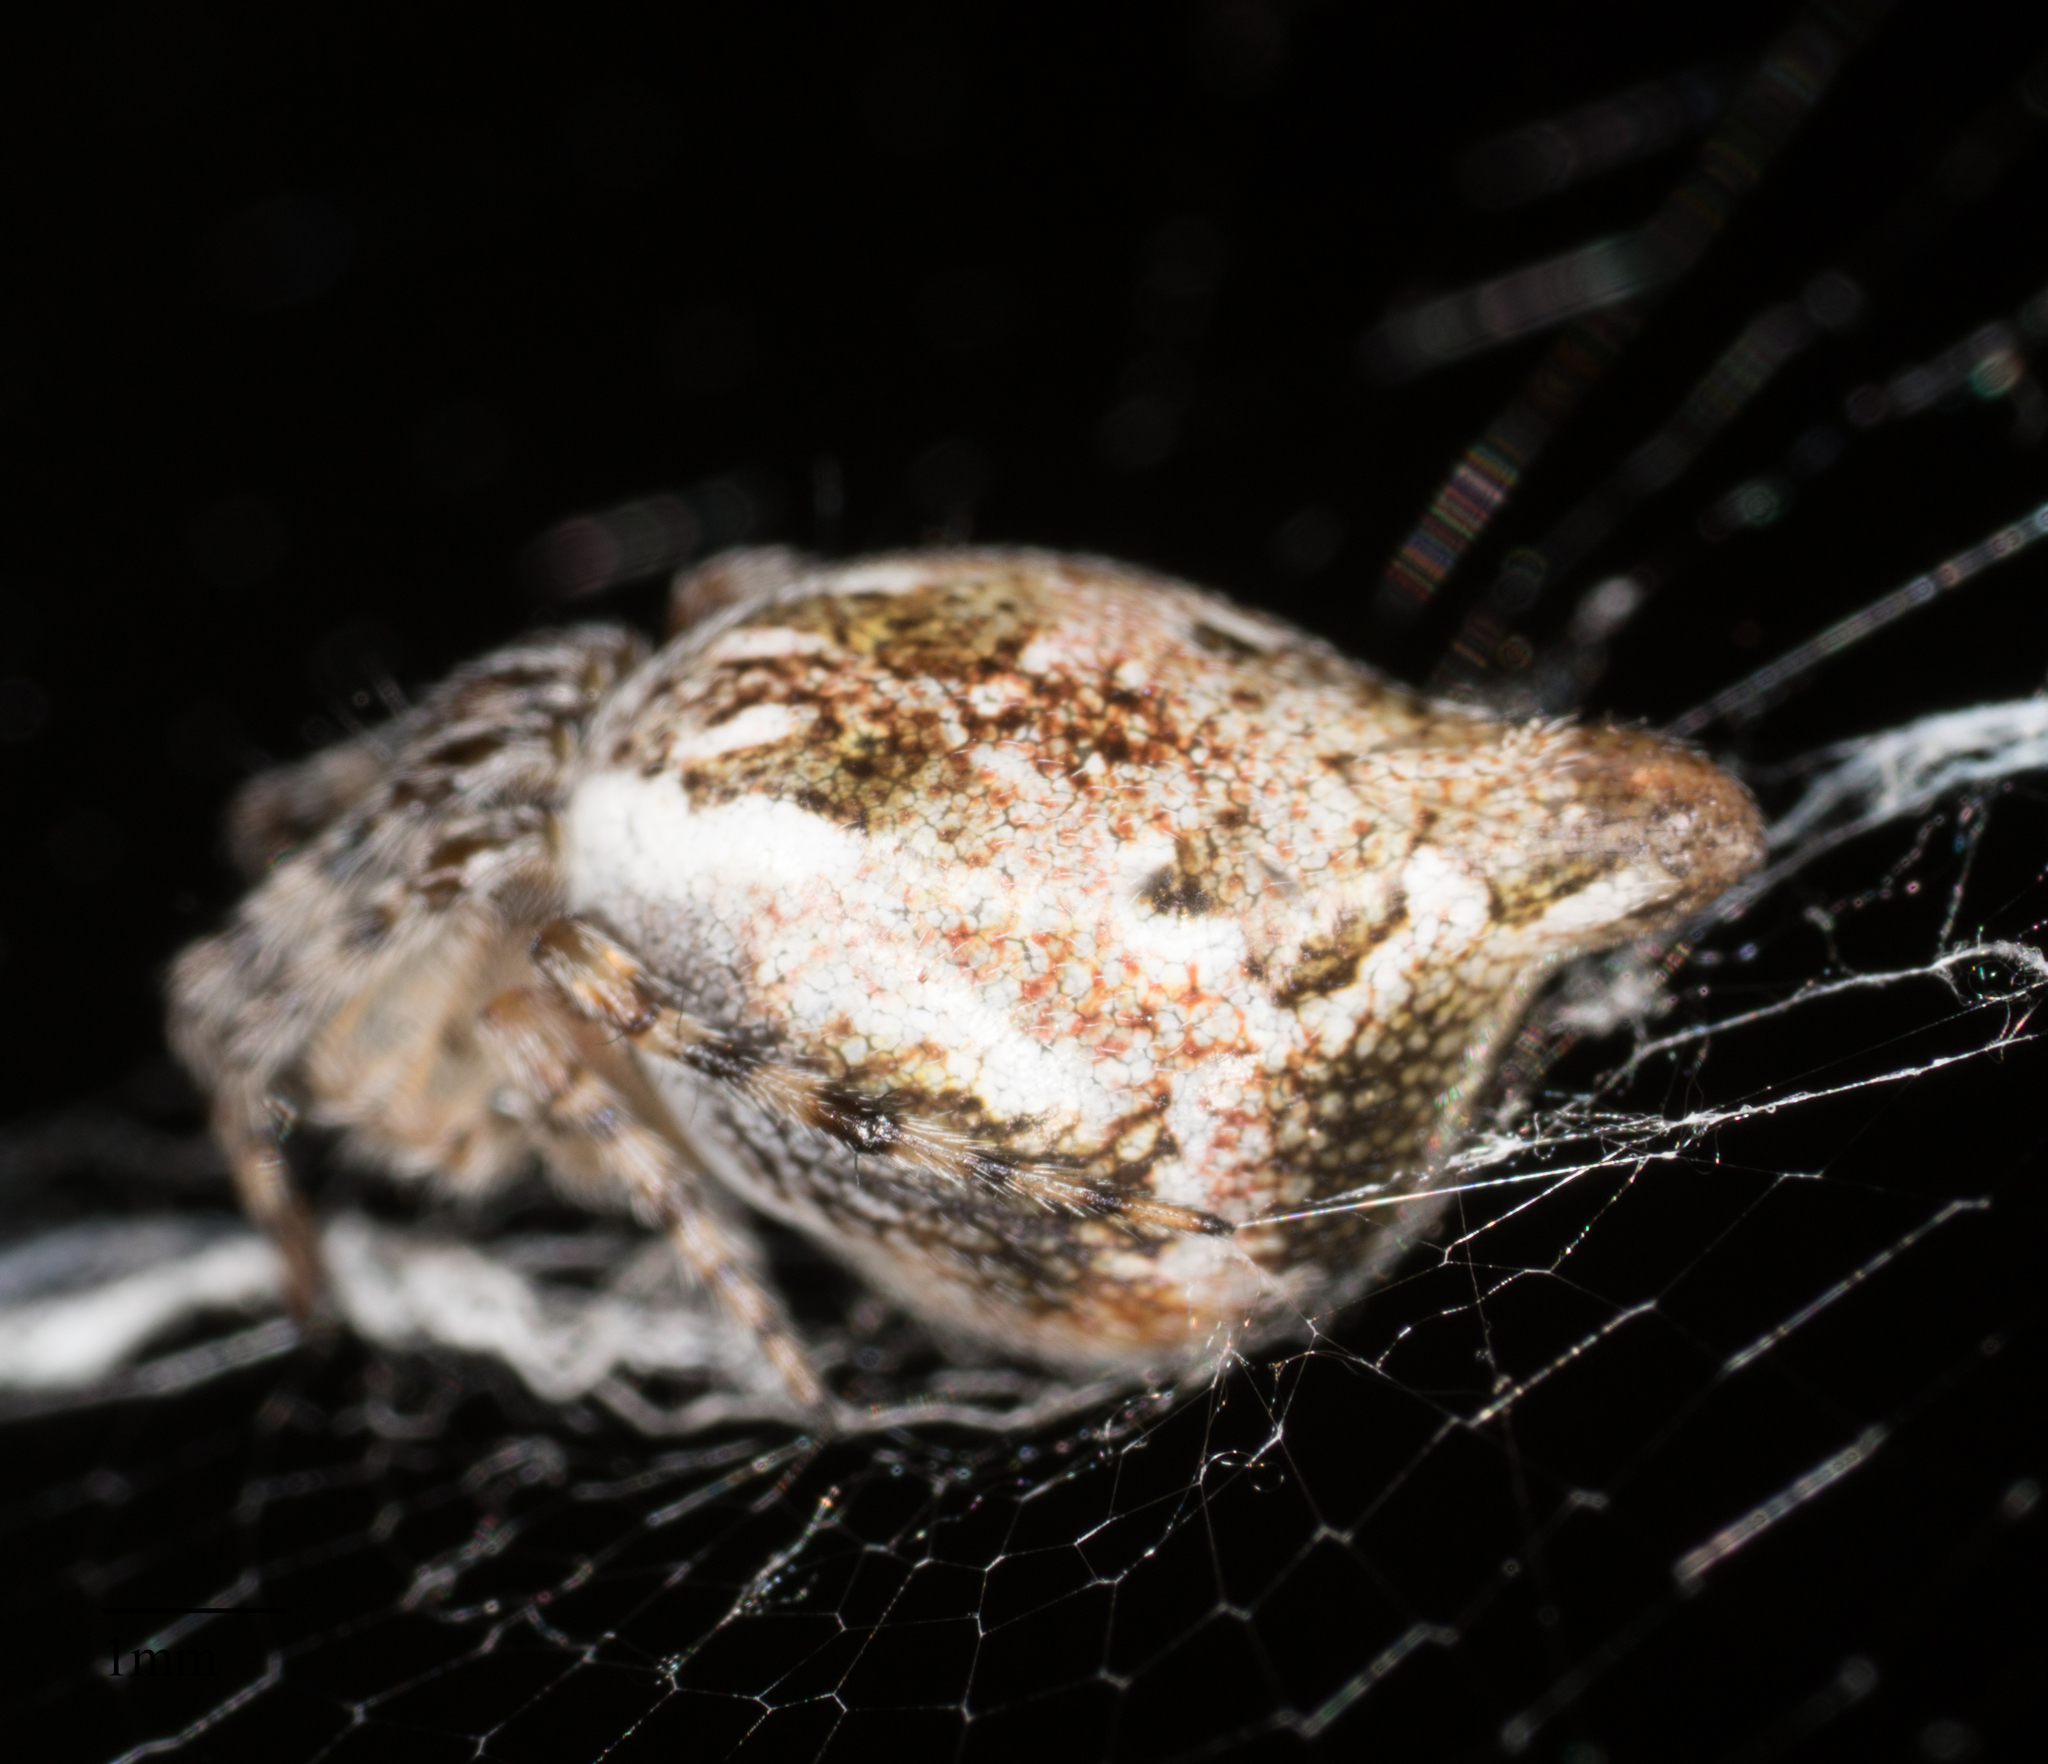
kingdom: Animalia
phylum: Arthropoda
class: Arachnida
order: Araneae
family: Araneidae
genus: Cyclosa
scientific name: Cyclosa conica
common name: Conical trashline orbweaver
